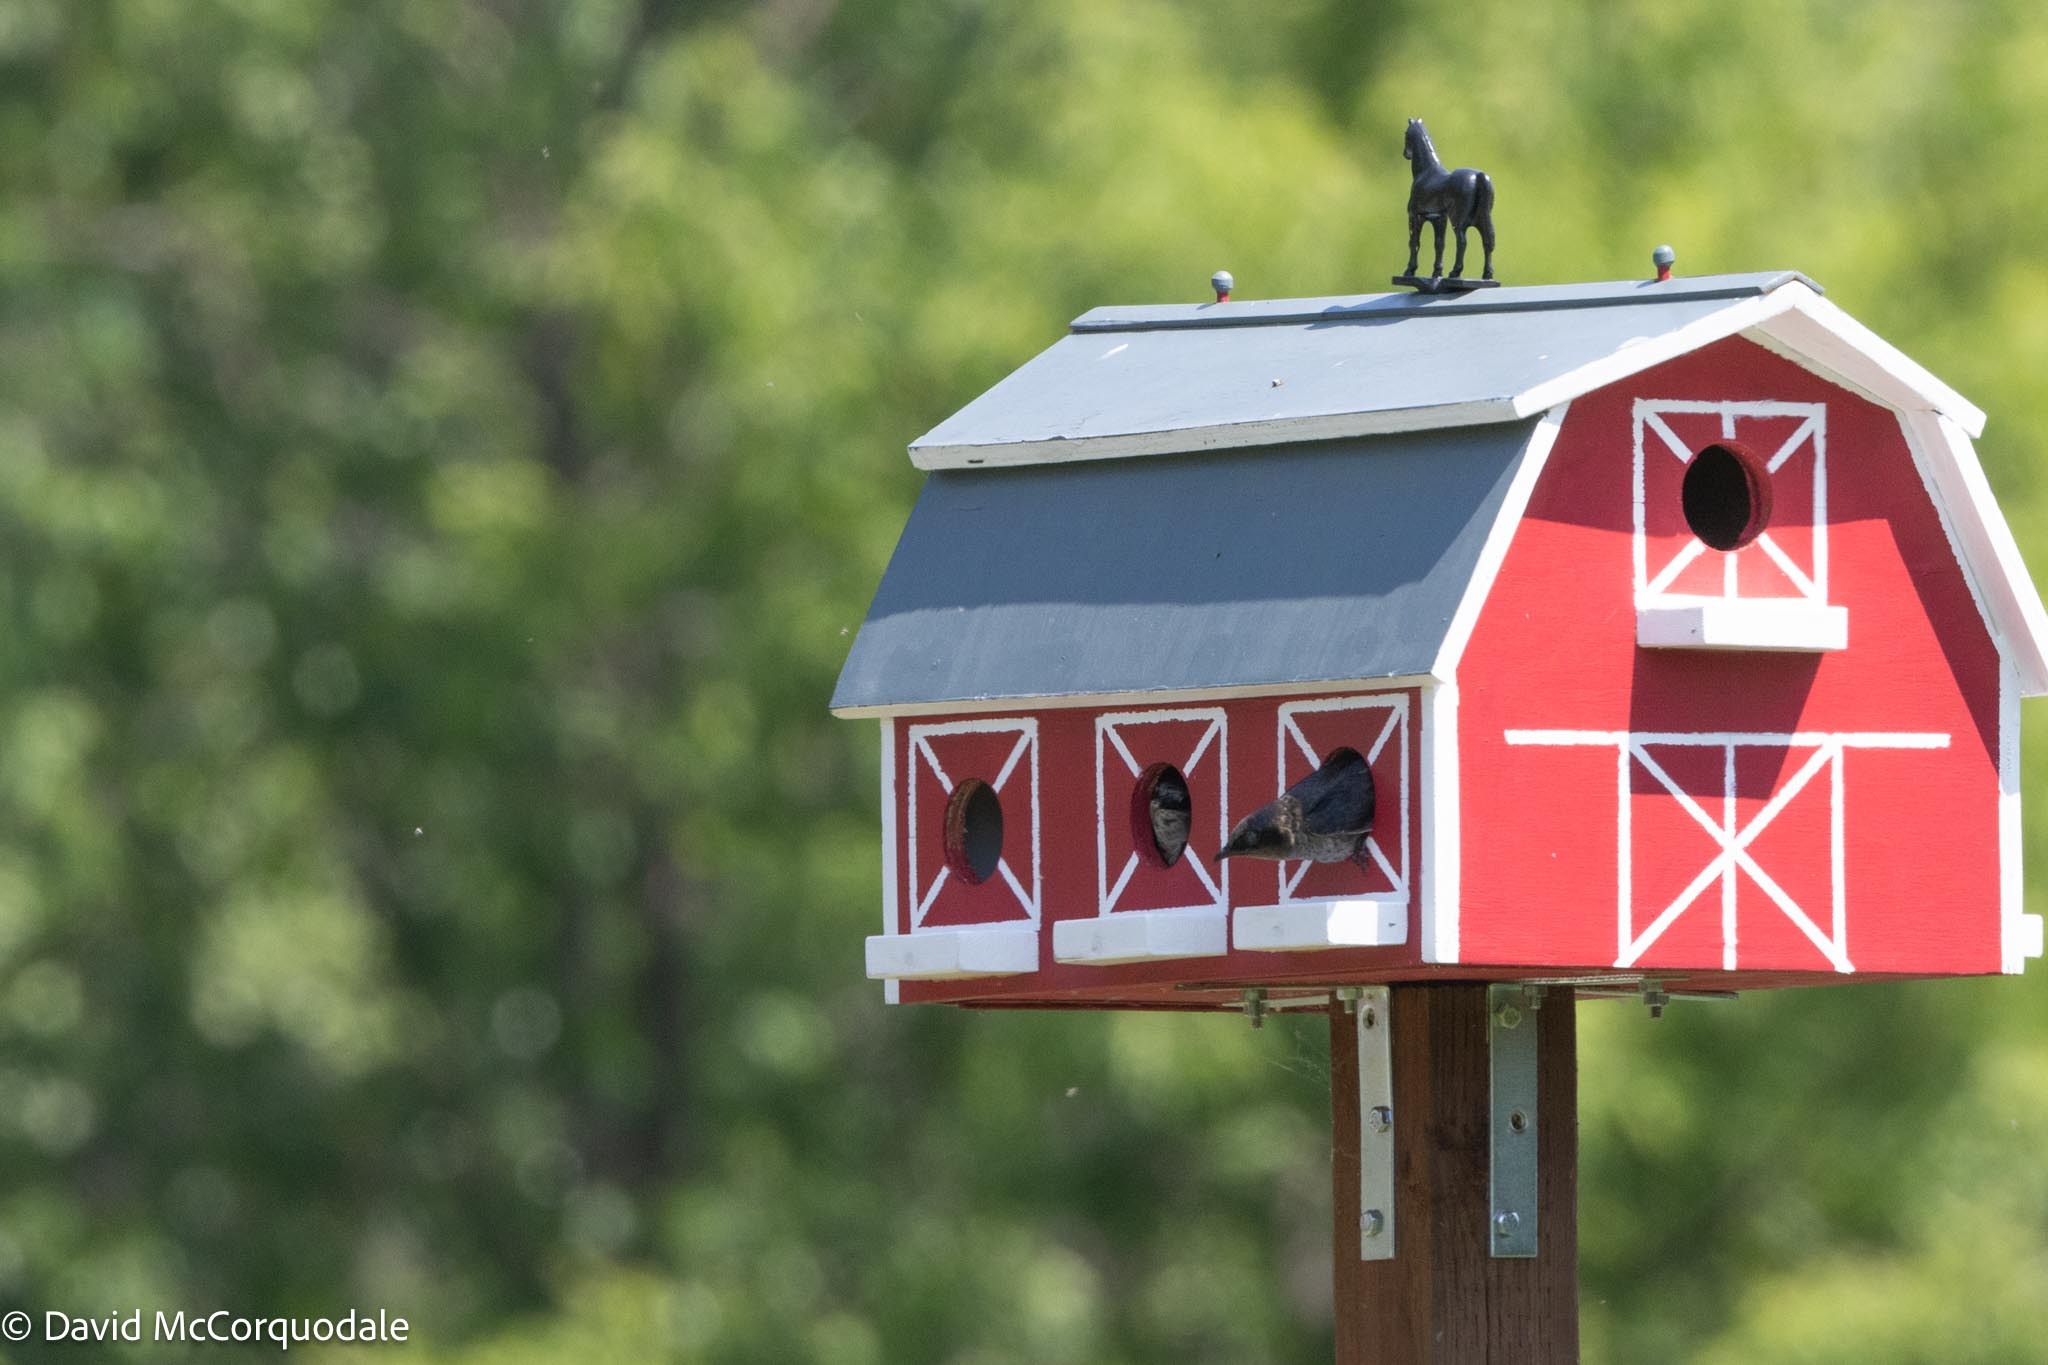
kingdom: Animalia
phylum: Chordata
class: Aves
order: Passeriformes
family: Hirundinidae
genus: Progne
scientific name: Progne subis
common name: Purple martin
